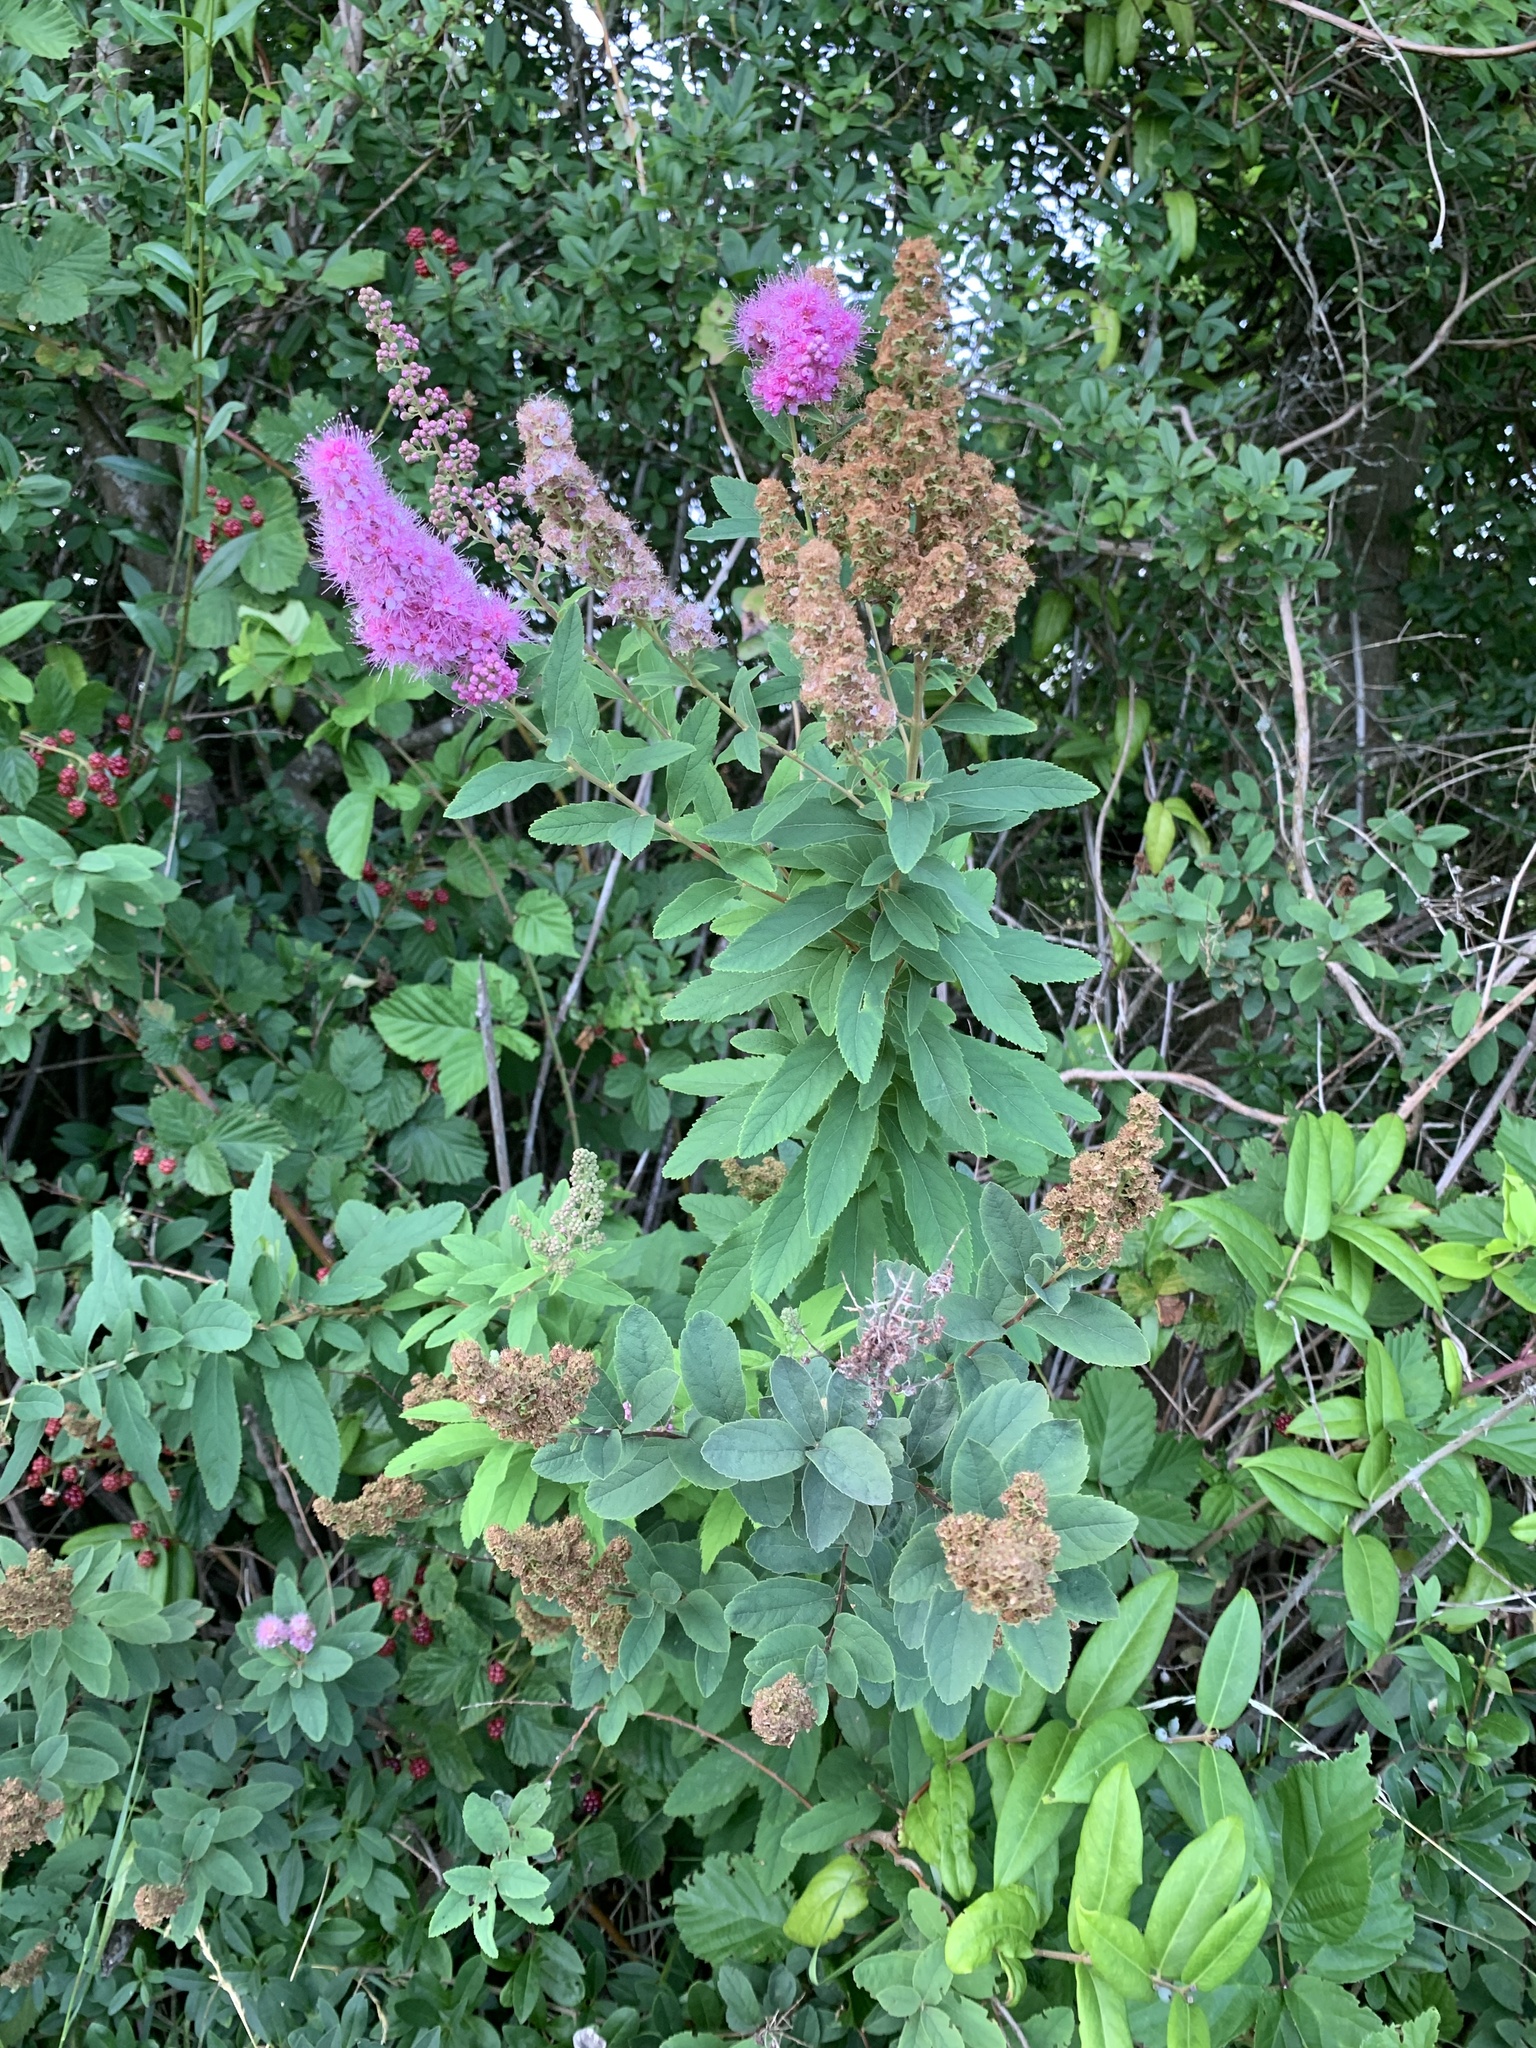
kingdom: Plantae
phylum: Tracheophyta
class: Magnoliopsida
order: Rosales
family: Rosaceae
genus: Spiraea
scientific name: Spiraea douglasii
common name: Steeplebush
